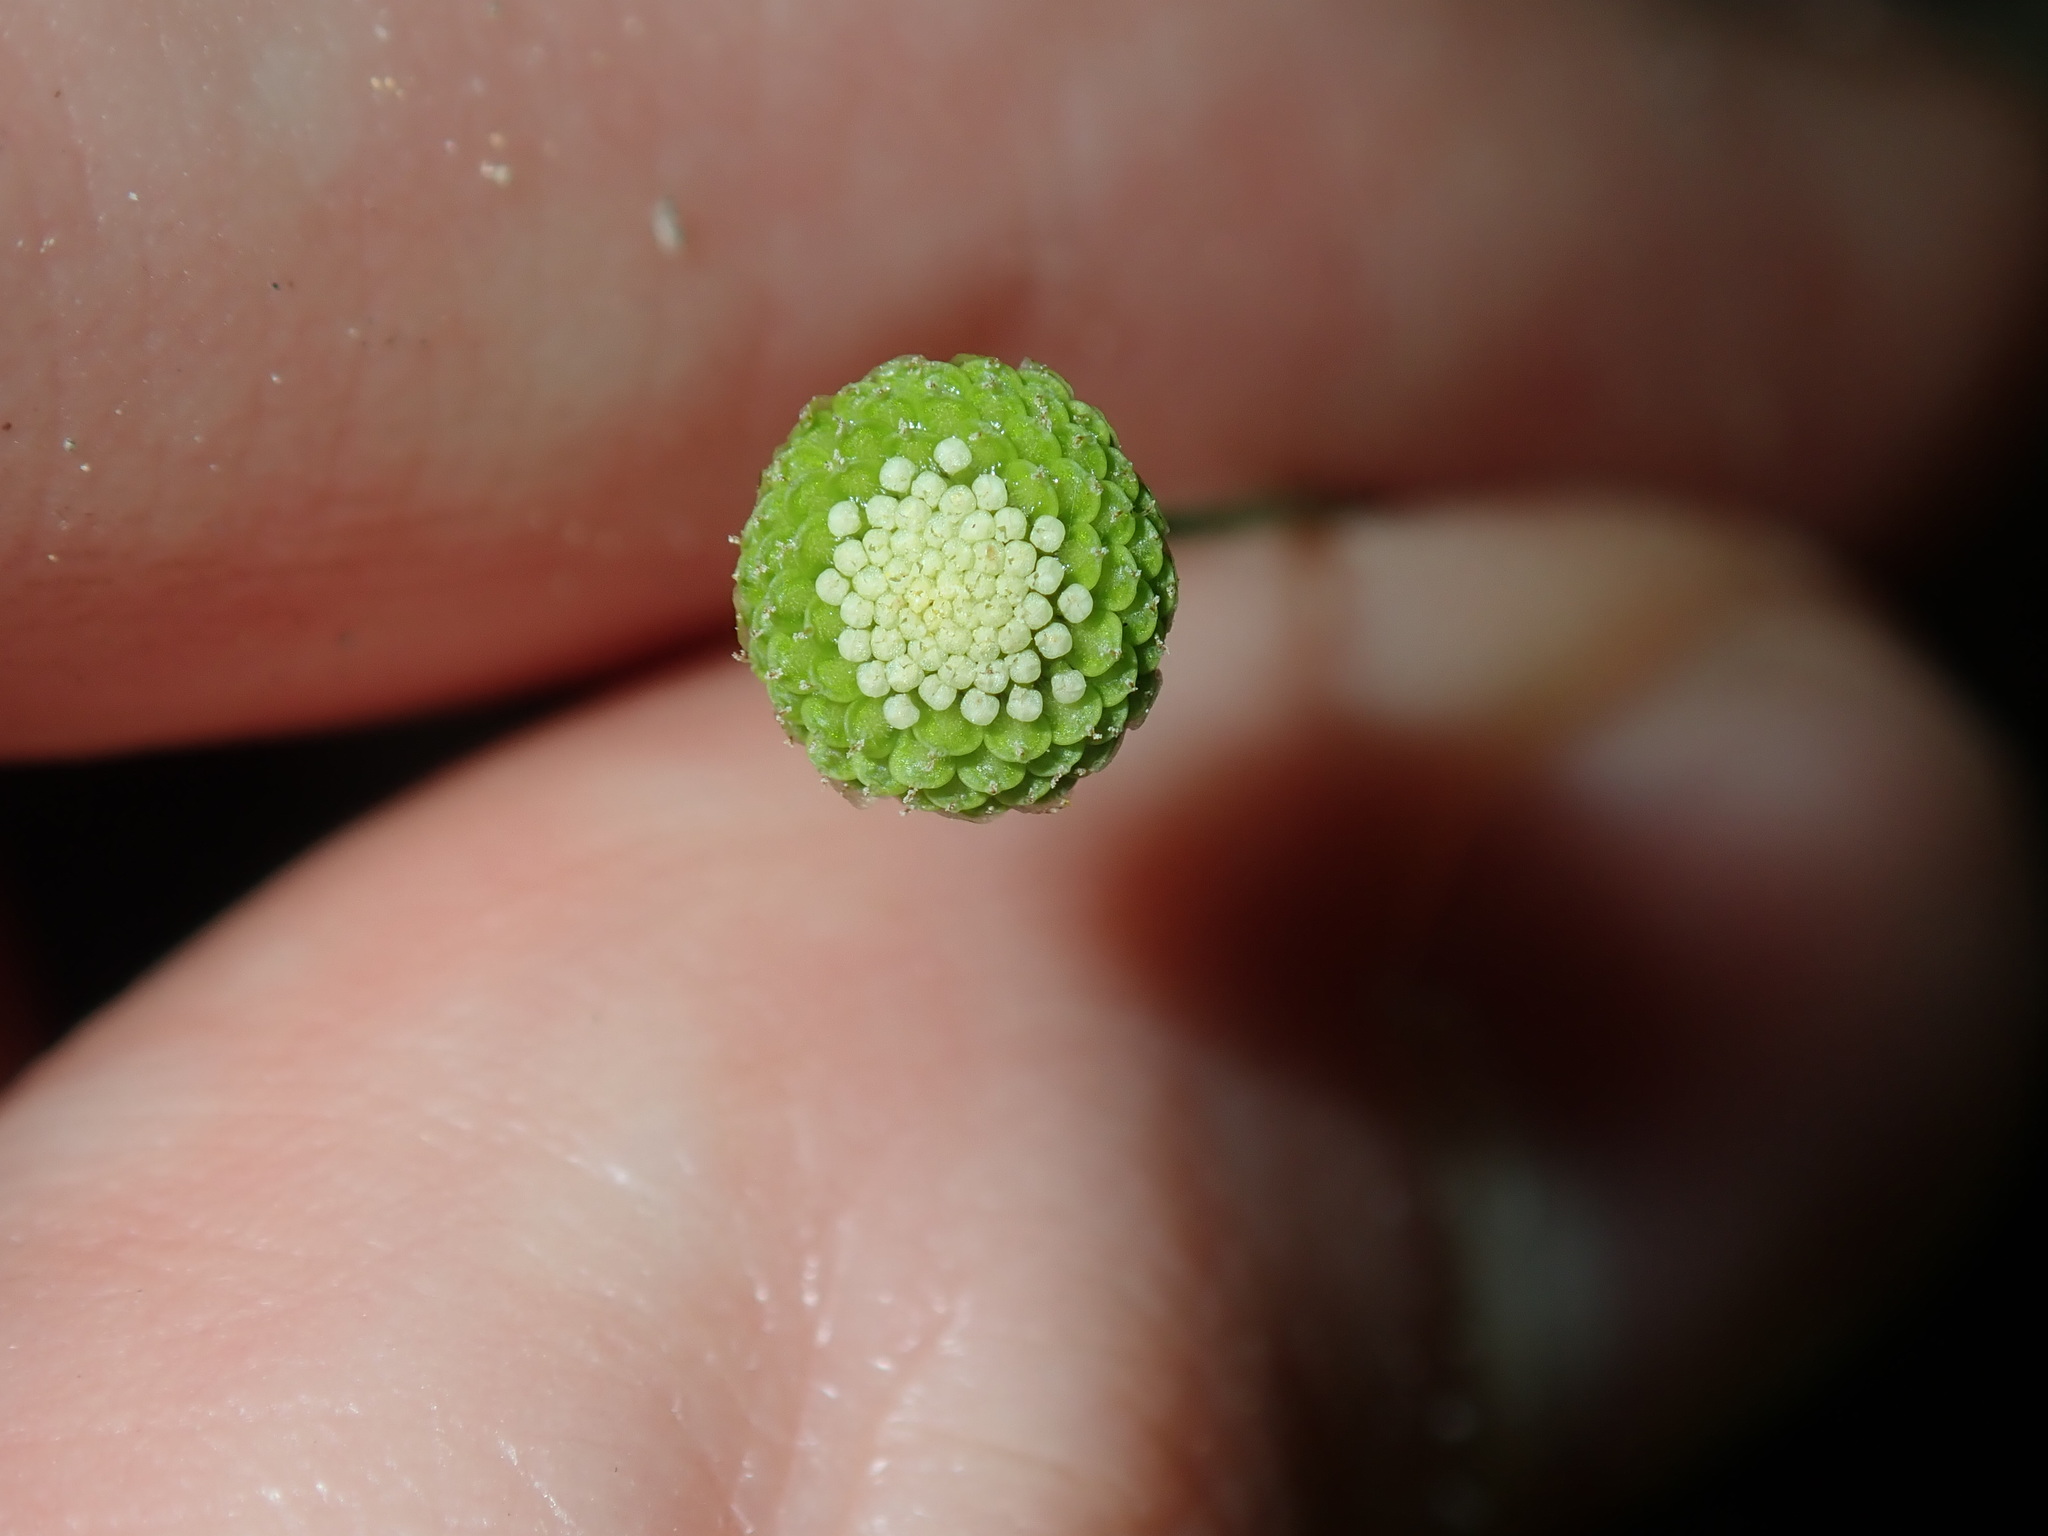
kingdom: Plantae
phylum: Tracheophyta
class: Magnoliopsida
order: Asterales
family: Asteraceae
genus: Cotula
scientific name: Cotula australis
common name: Australian waterbuttons
